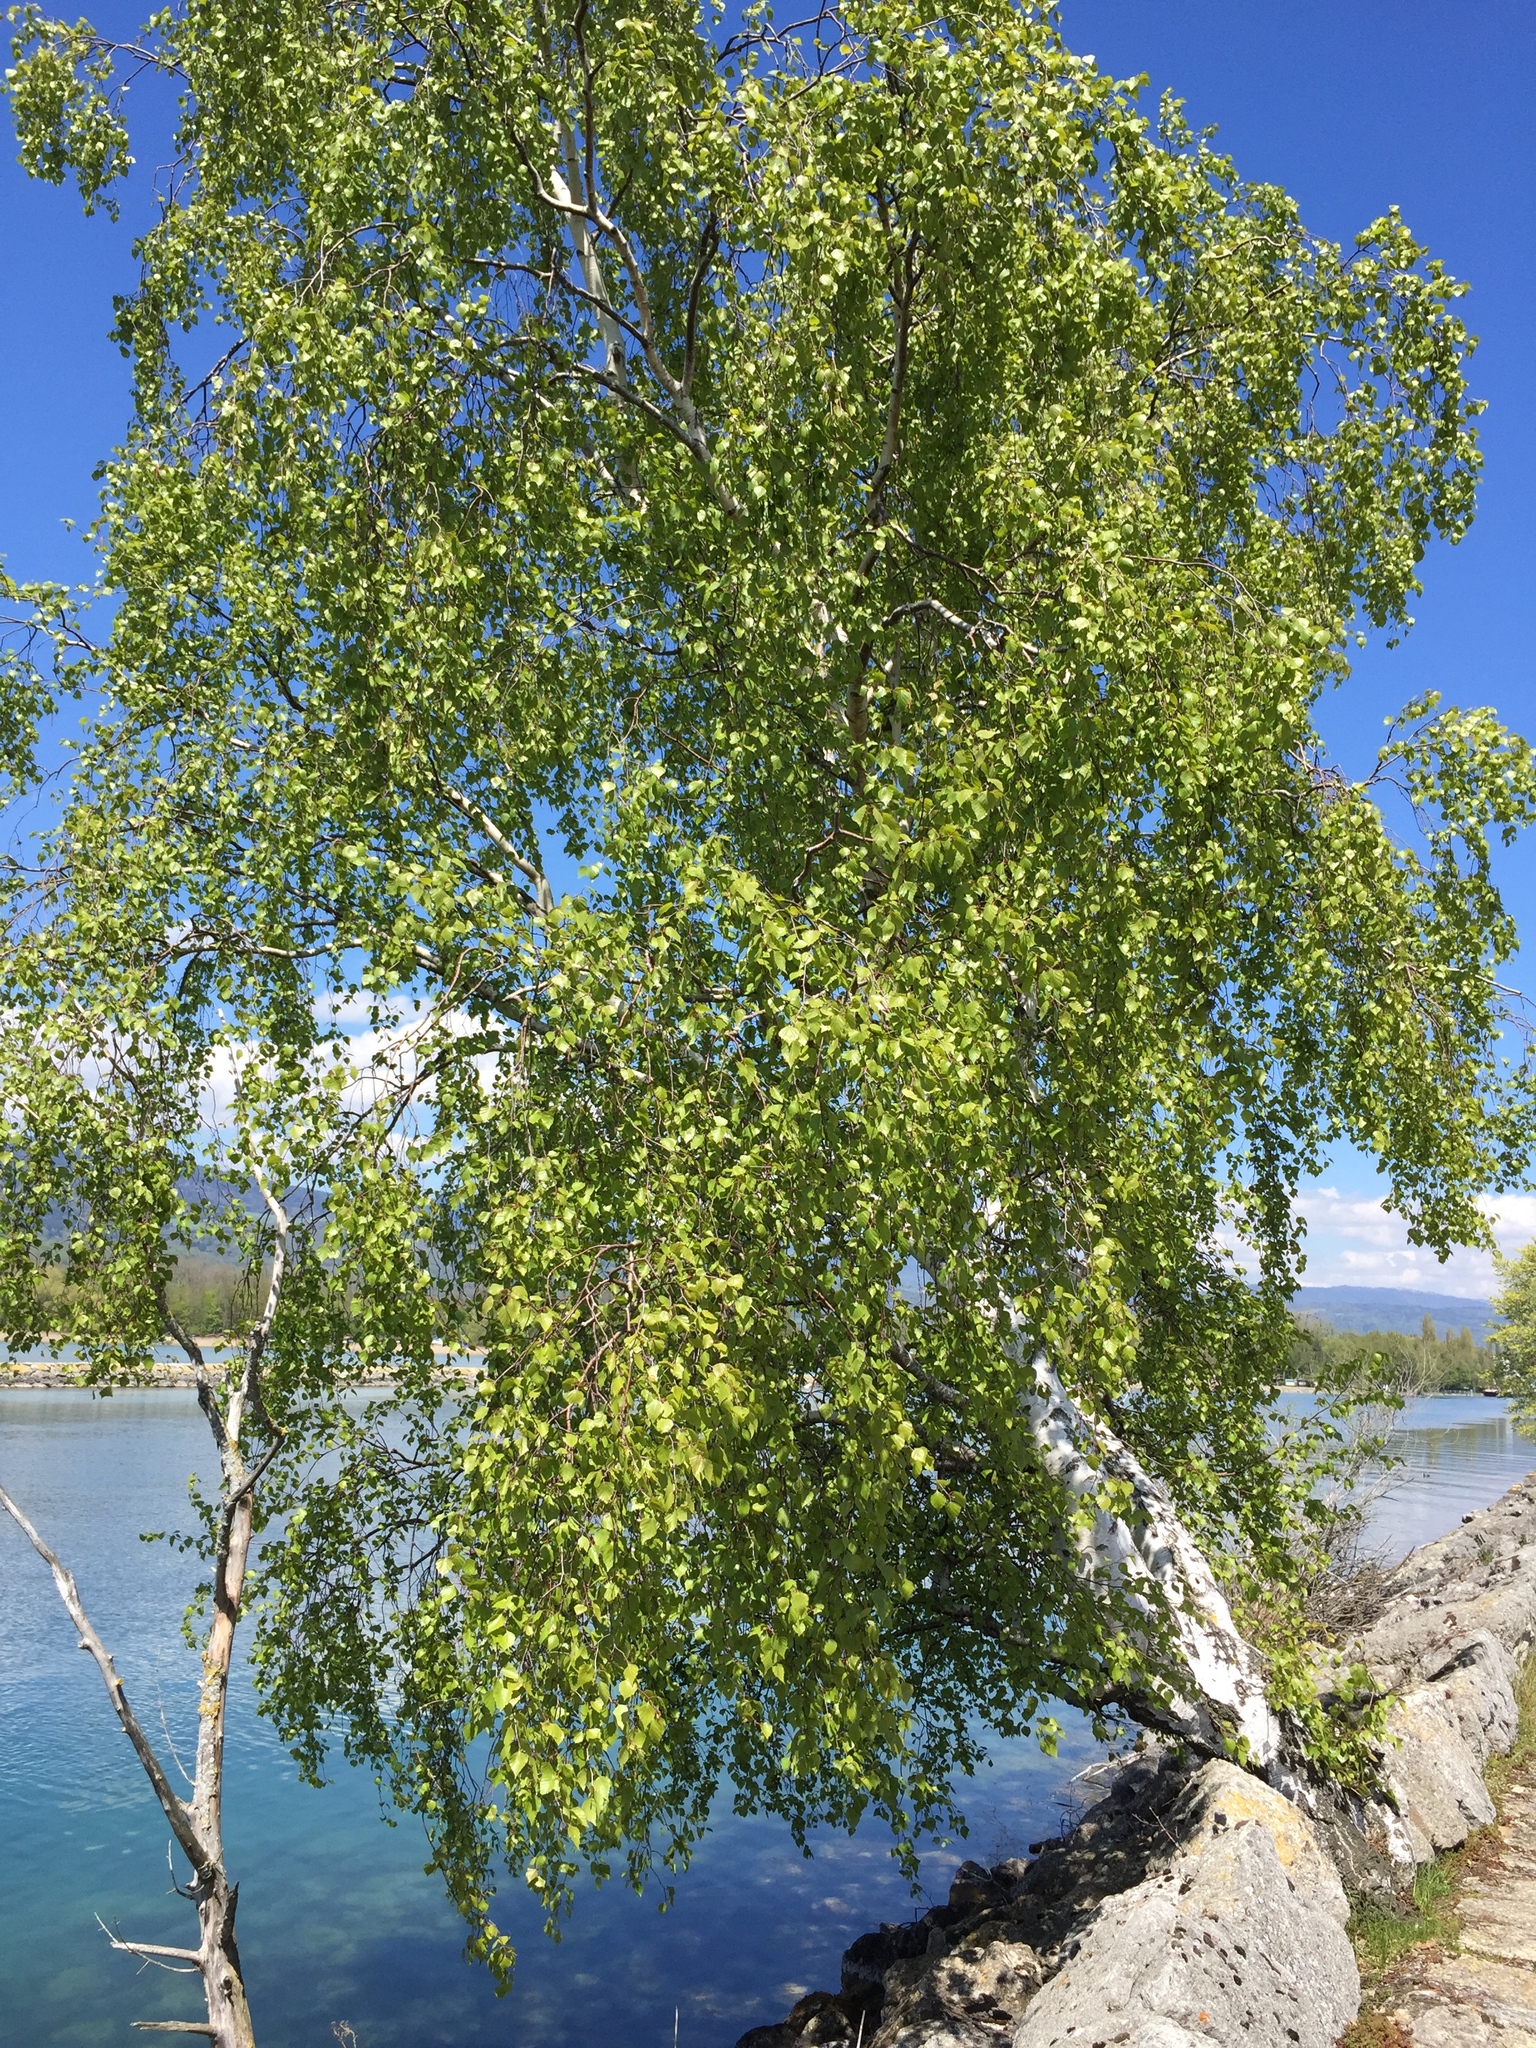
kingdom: Plantae
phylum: Tracheophyta
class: Magnoliopsida
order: Fagales
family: Betulaceae
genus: Betula
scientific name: Betula pendula
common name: Silver birch
